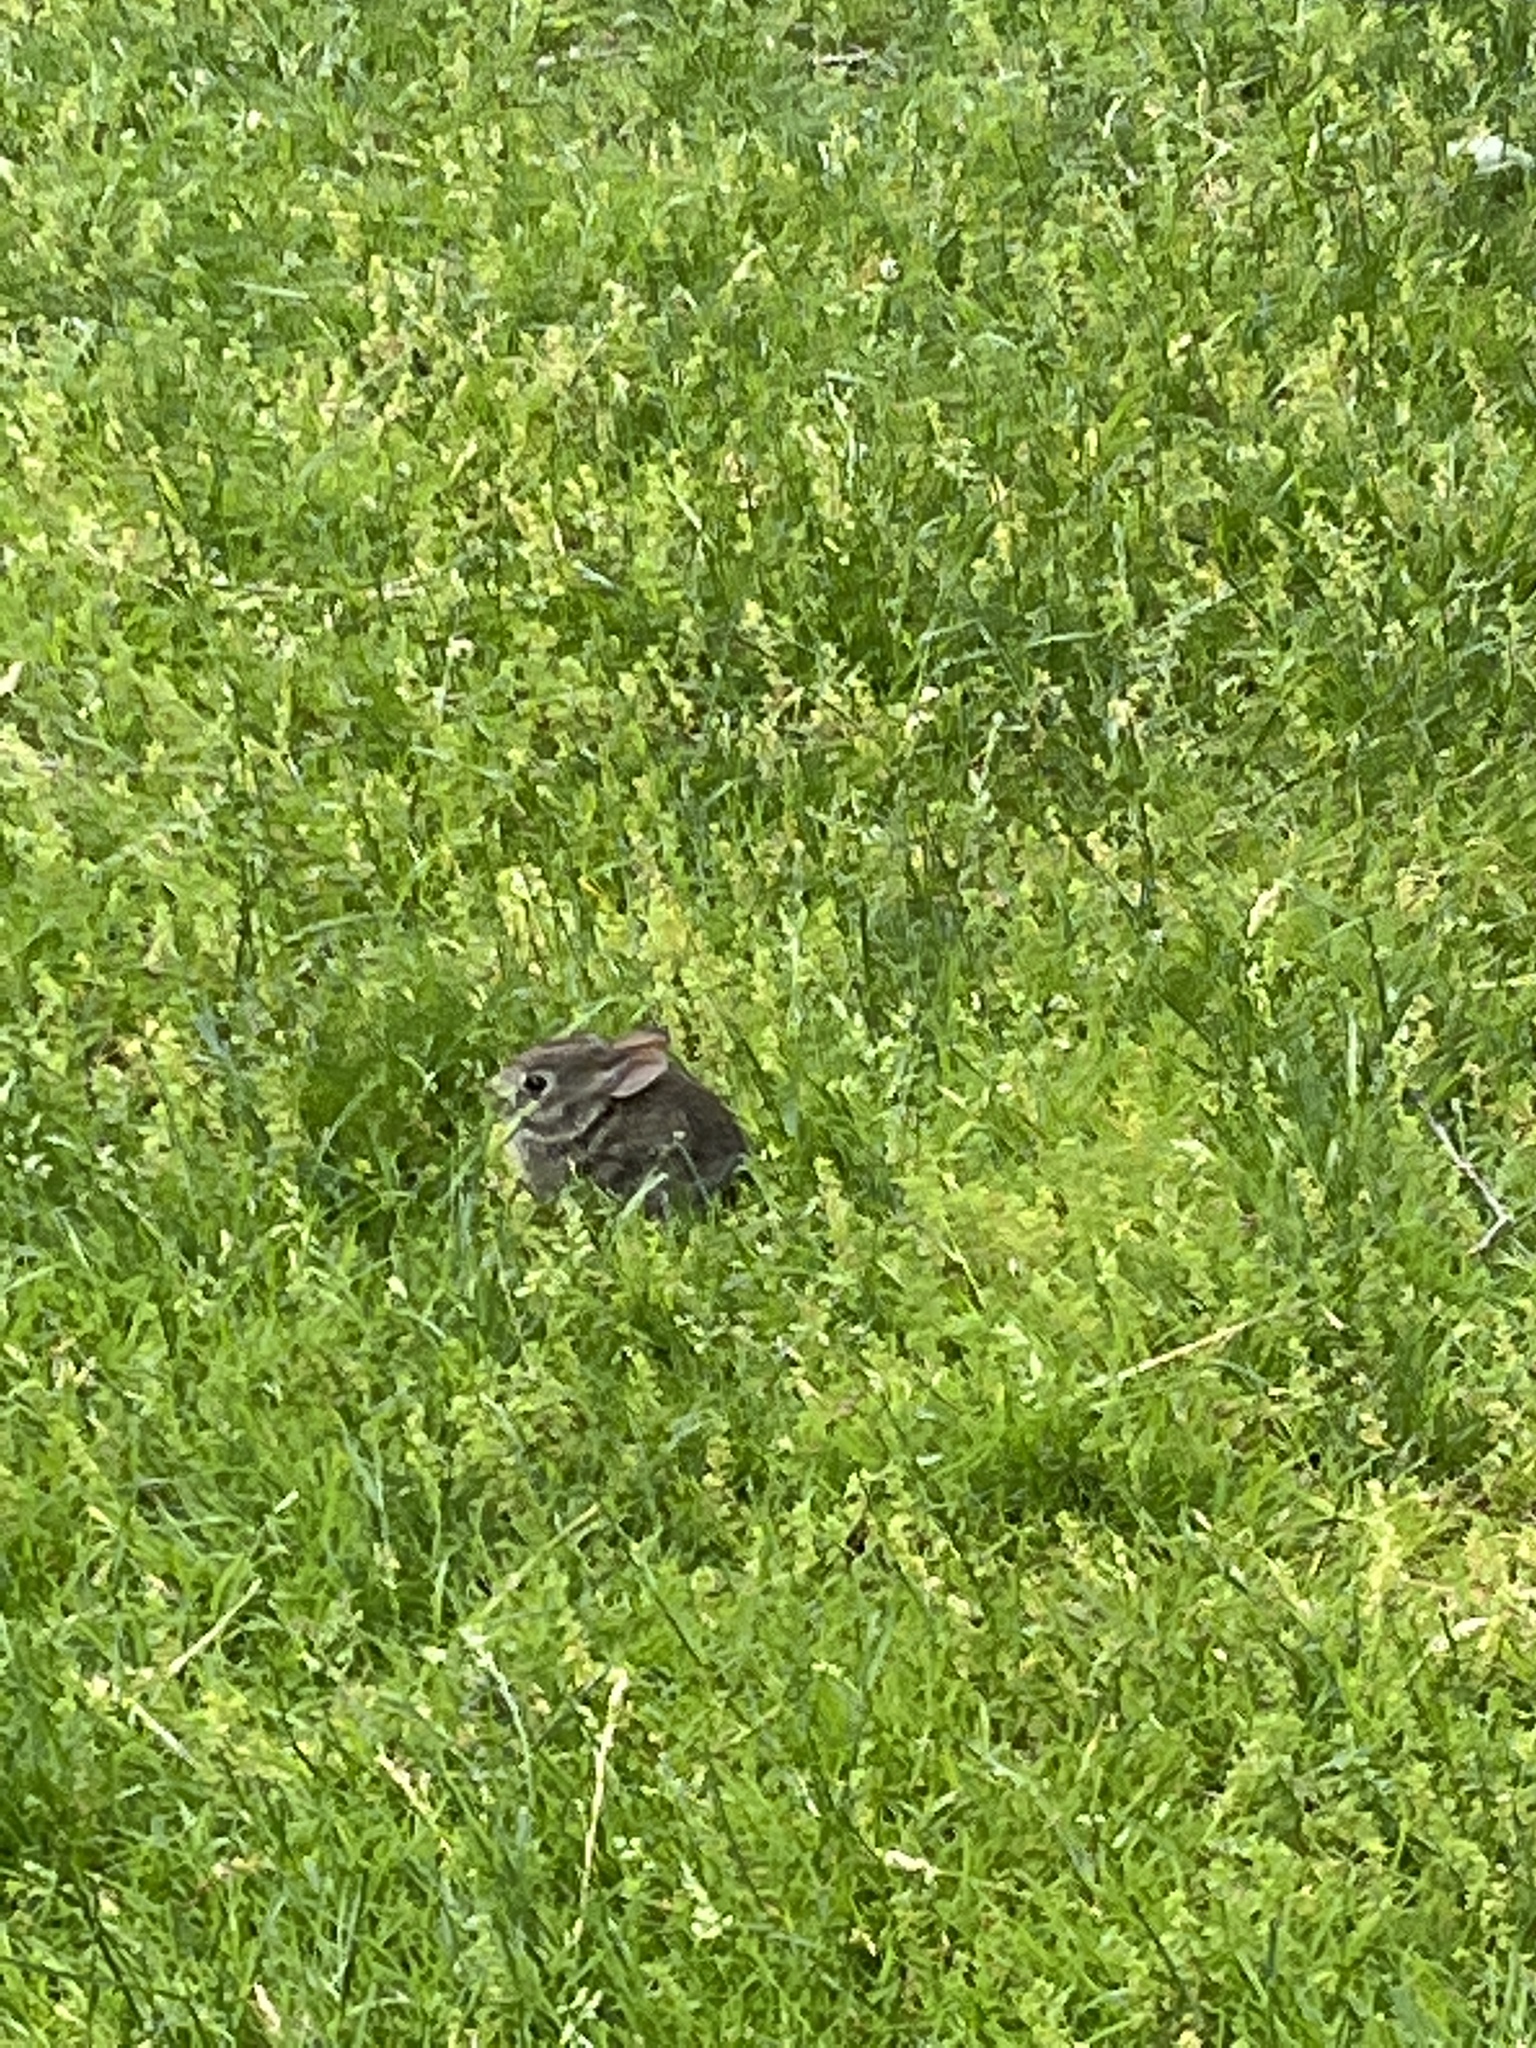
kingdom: Animalia
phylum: Chordata
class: Mammalia
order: Lagomorpha
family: Leporidae
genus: Sylvilagus
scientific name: Sylvilagus floridanus
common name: Eastern cottontail
